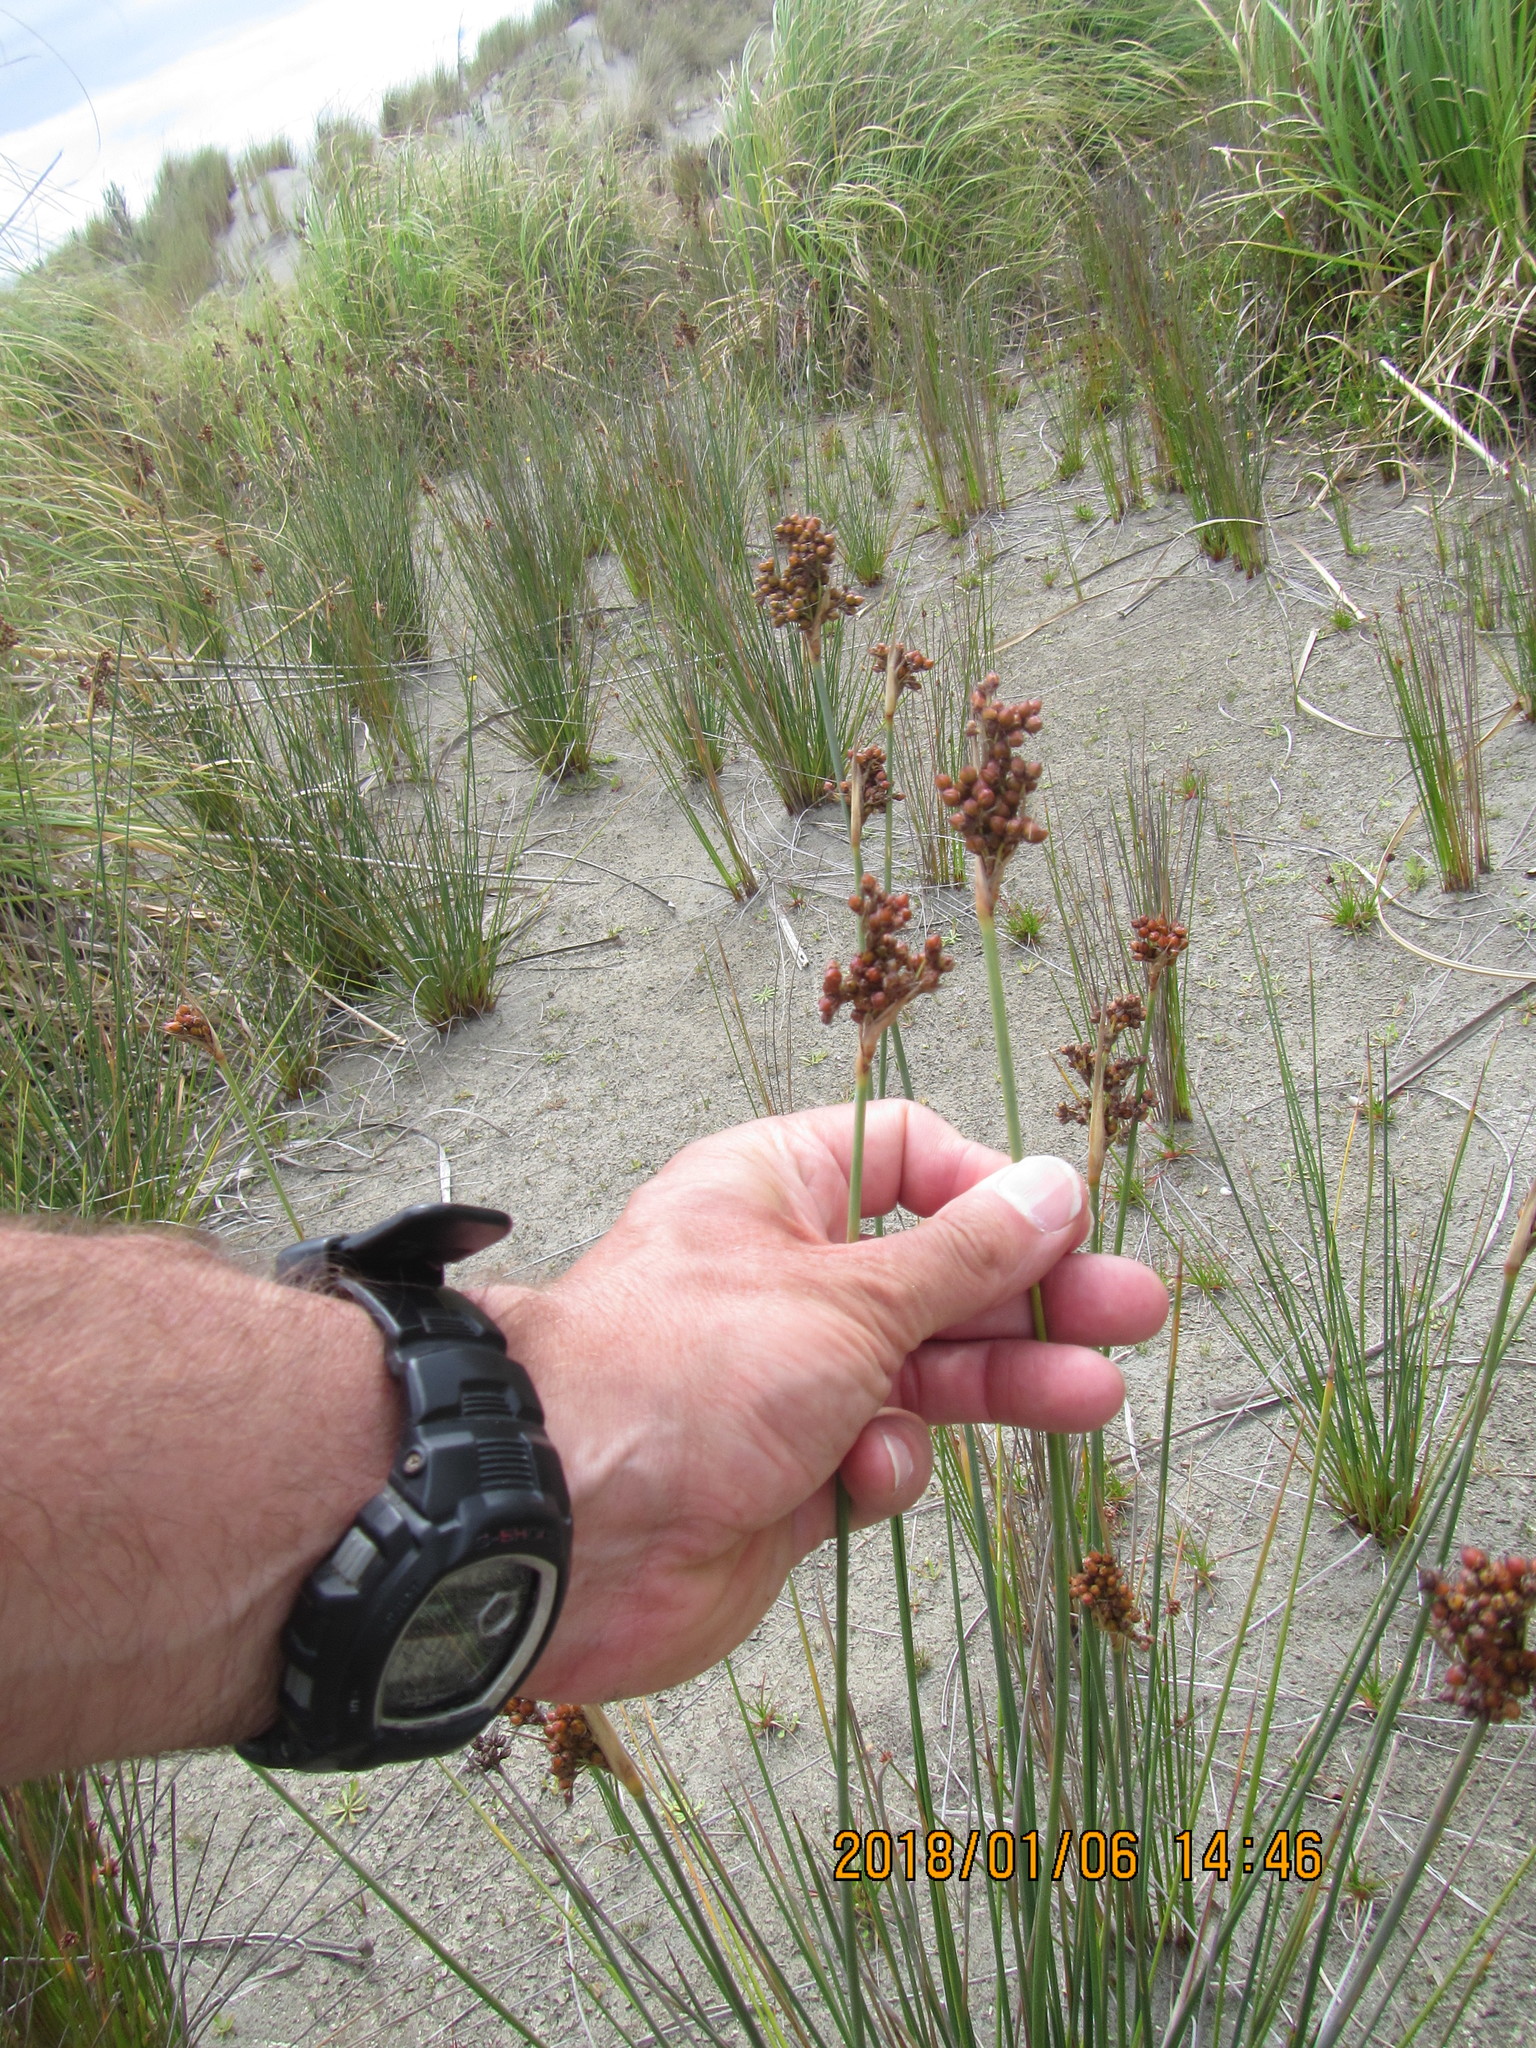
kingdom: Plantae
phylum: Tracheophyta
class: Liliopsida
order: Poales
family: Juncaceae
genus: Juncus
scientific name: Juncus acutus
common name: Sharp rush
